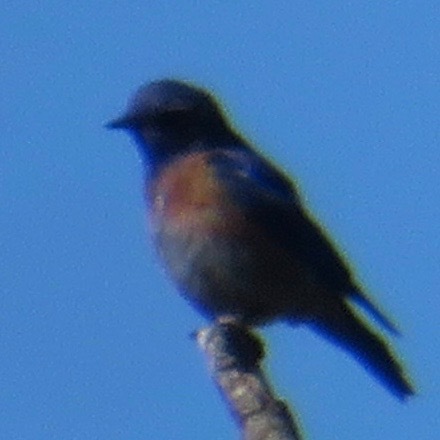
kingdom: Animalia
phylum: Chordata
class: Aves
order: Passeriformes
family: Turdidae
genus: Sialia
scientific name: Sialia mexicana
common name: Western bluebird
